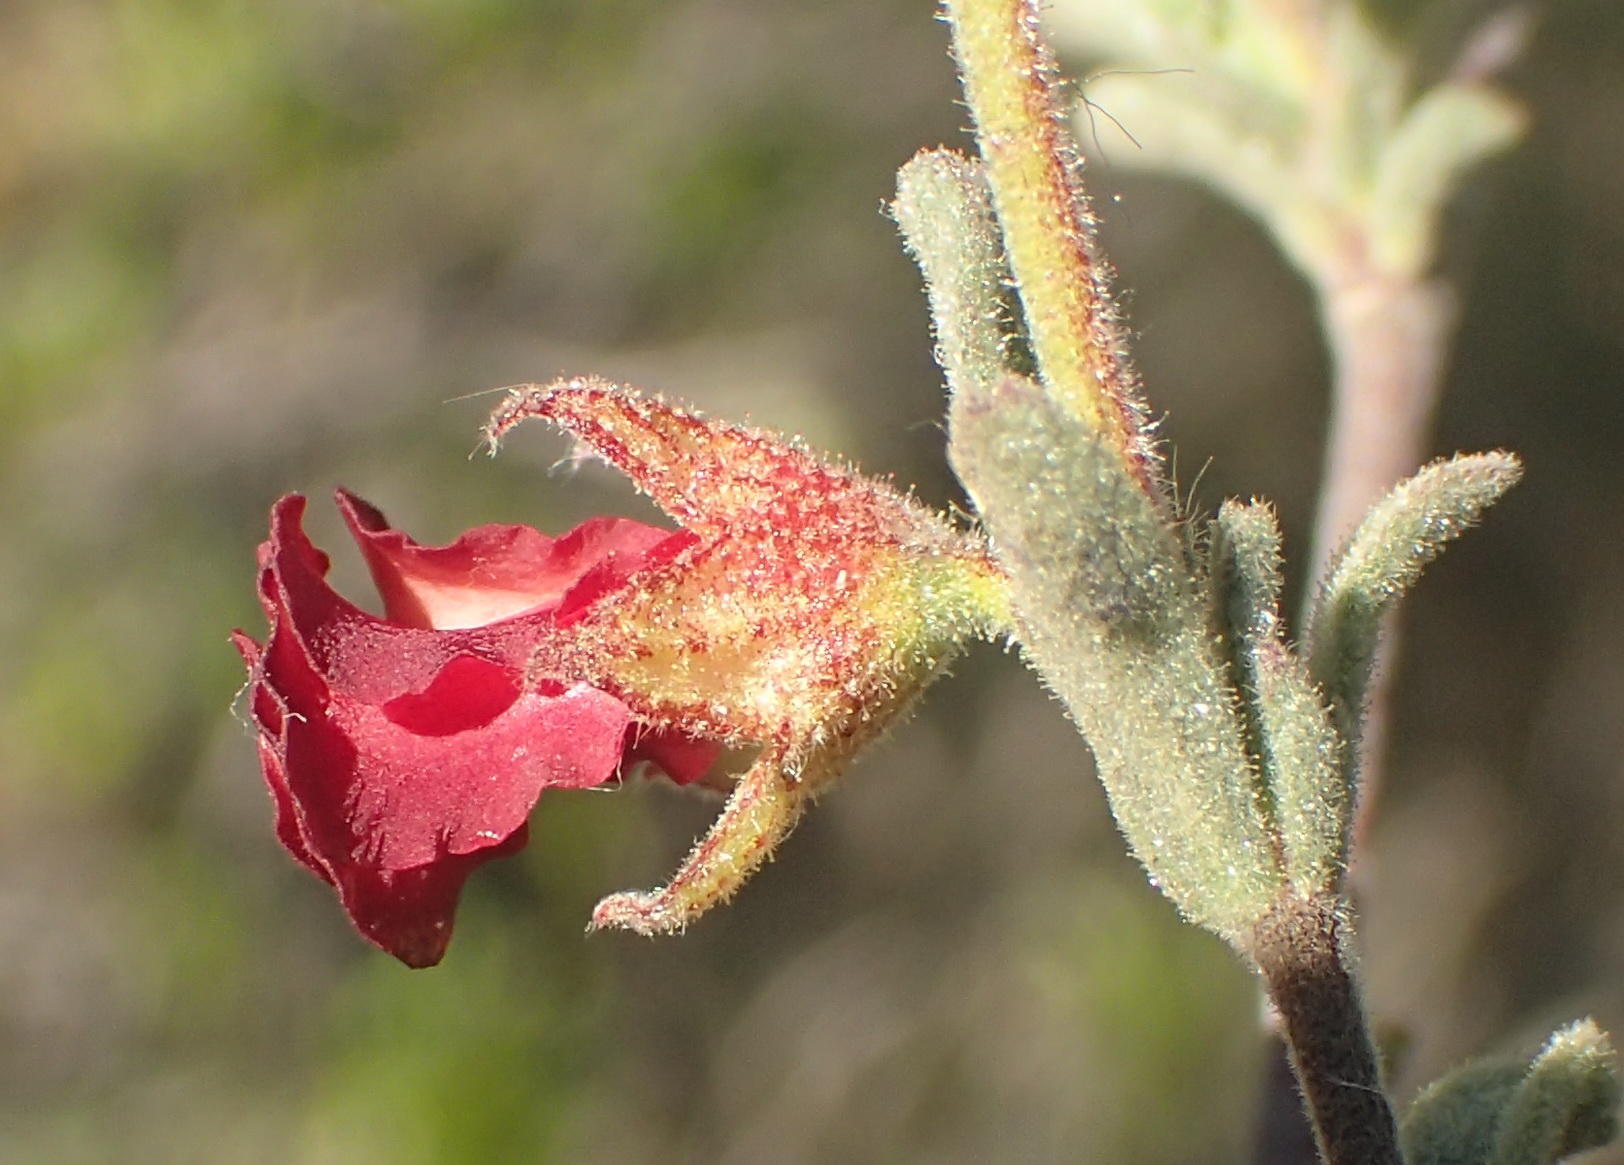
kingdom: Plantae
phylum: Tracheophyta
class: Magnoliopsida
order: Malvales
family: Malvaceae
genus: Hermannia
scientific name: Hermannia flammula
